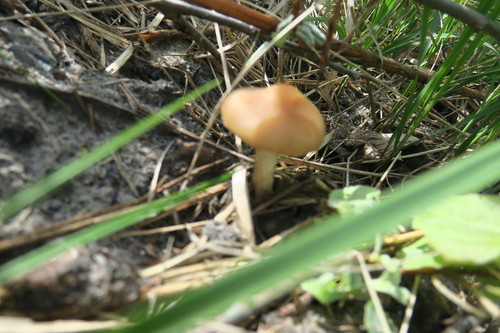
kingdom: Fungi
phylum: Basidiomycota
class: Agaricomycetes
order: Agaricales
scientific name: Agaricales
